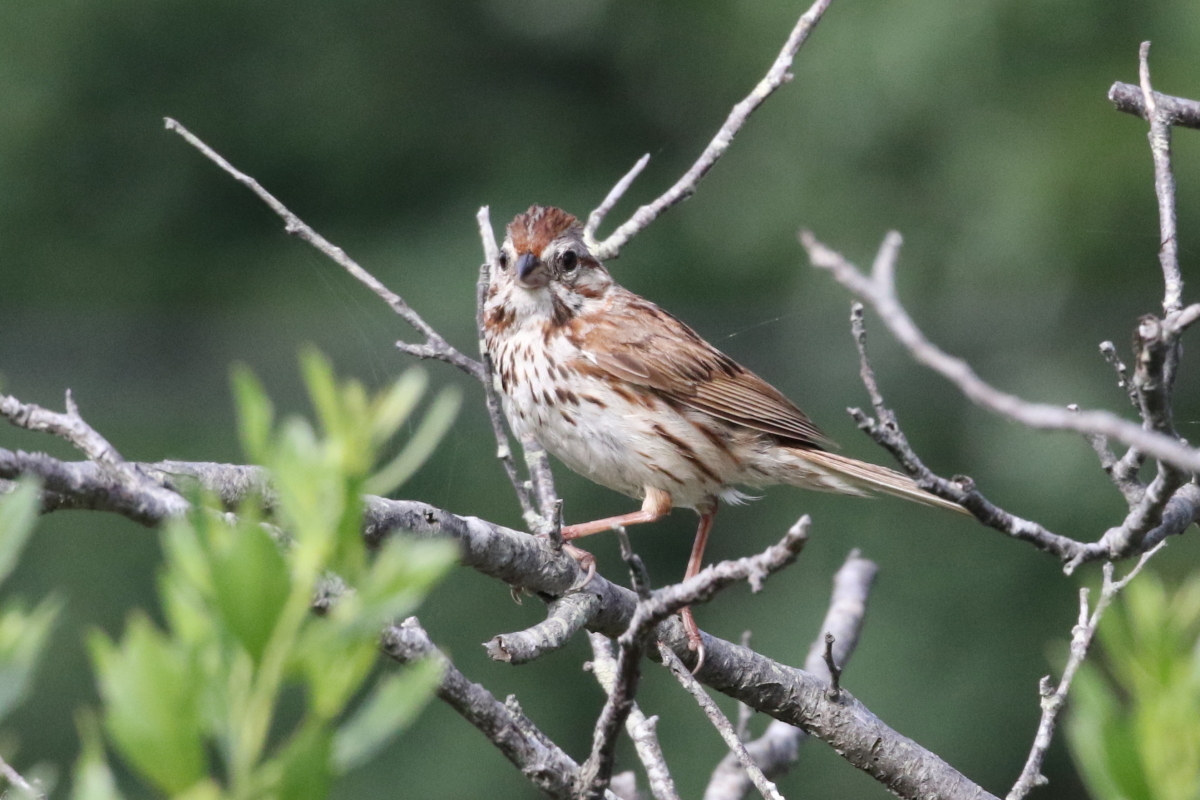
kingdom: Animalia
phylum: Chordata
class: Aves
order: Passeriformes
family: Passerellidae
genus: Melospiza
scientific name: Melospiza melodia
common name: Song sparrow
